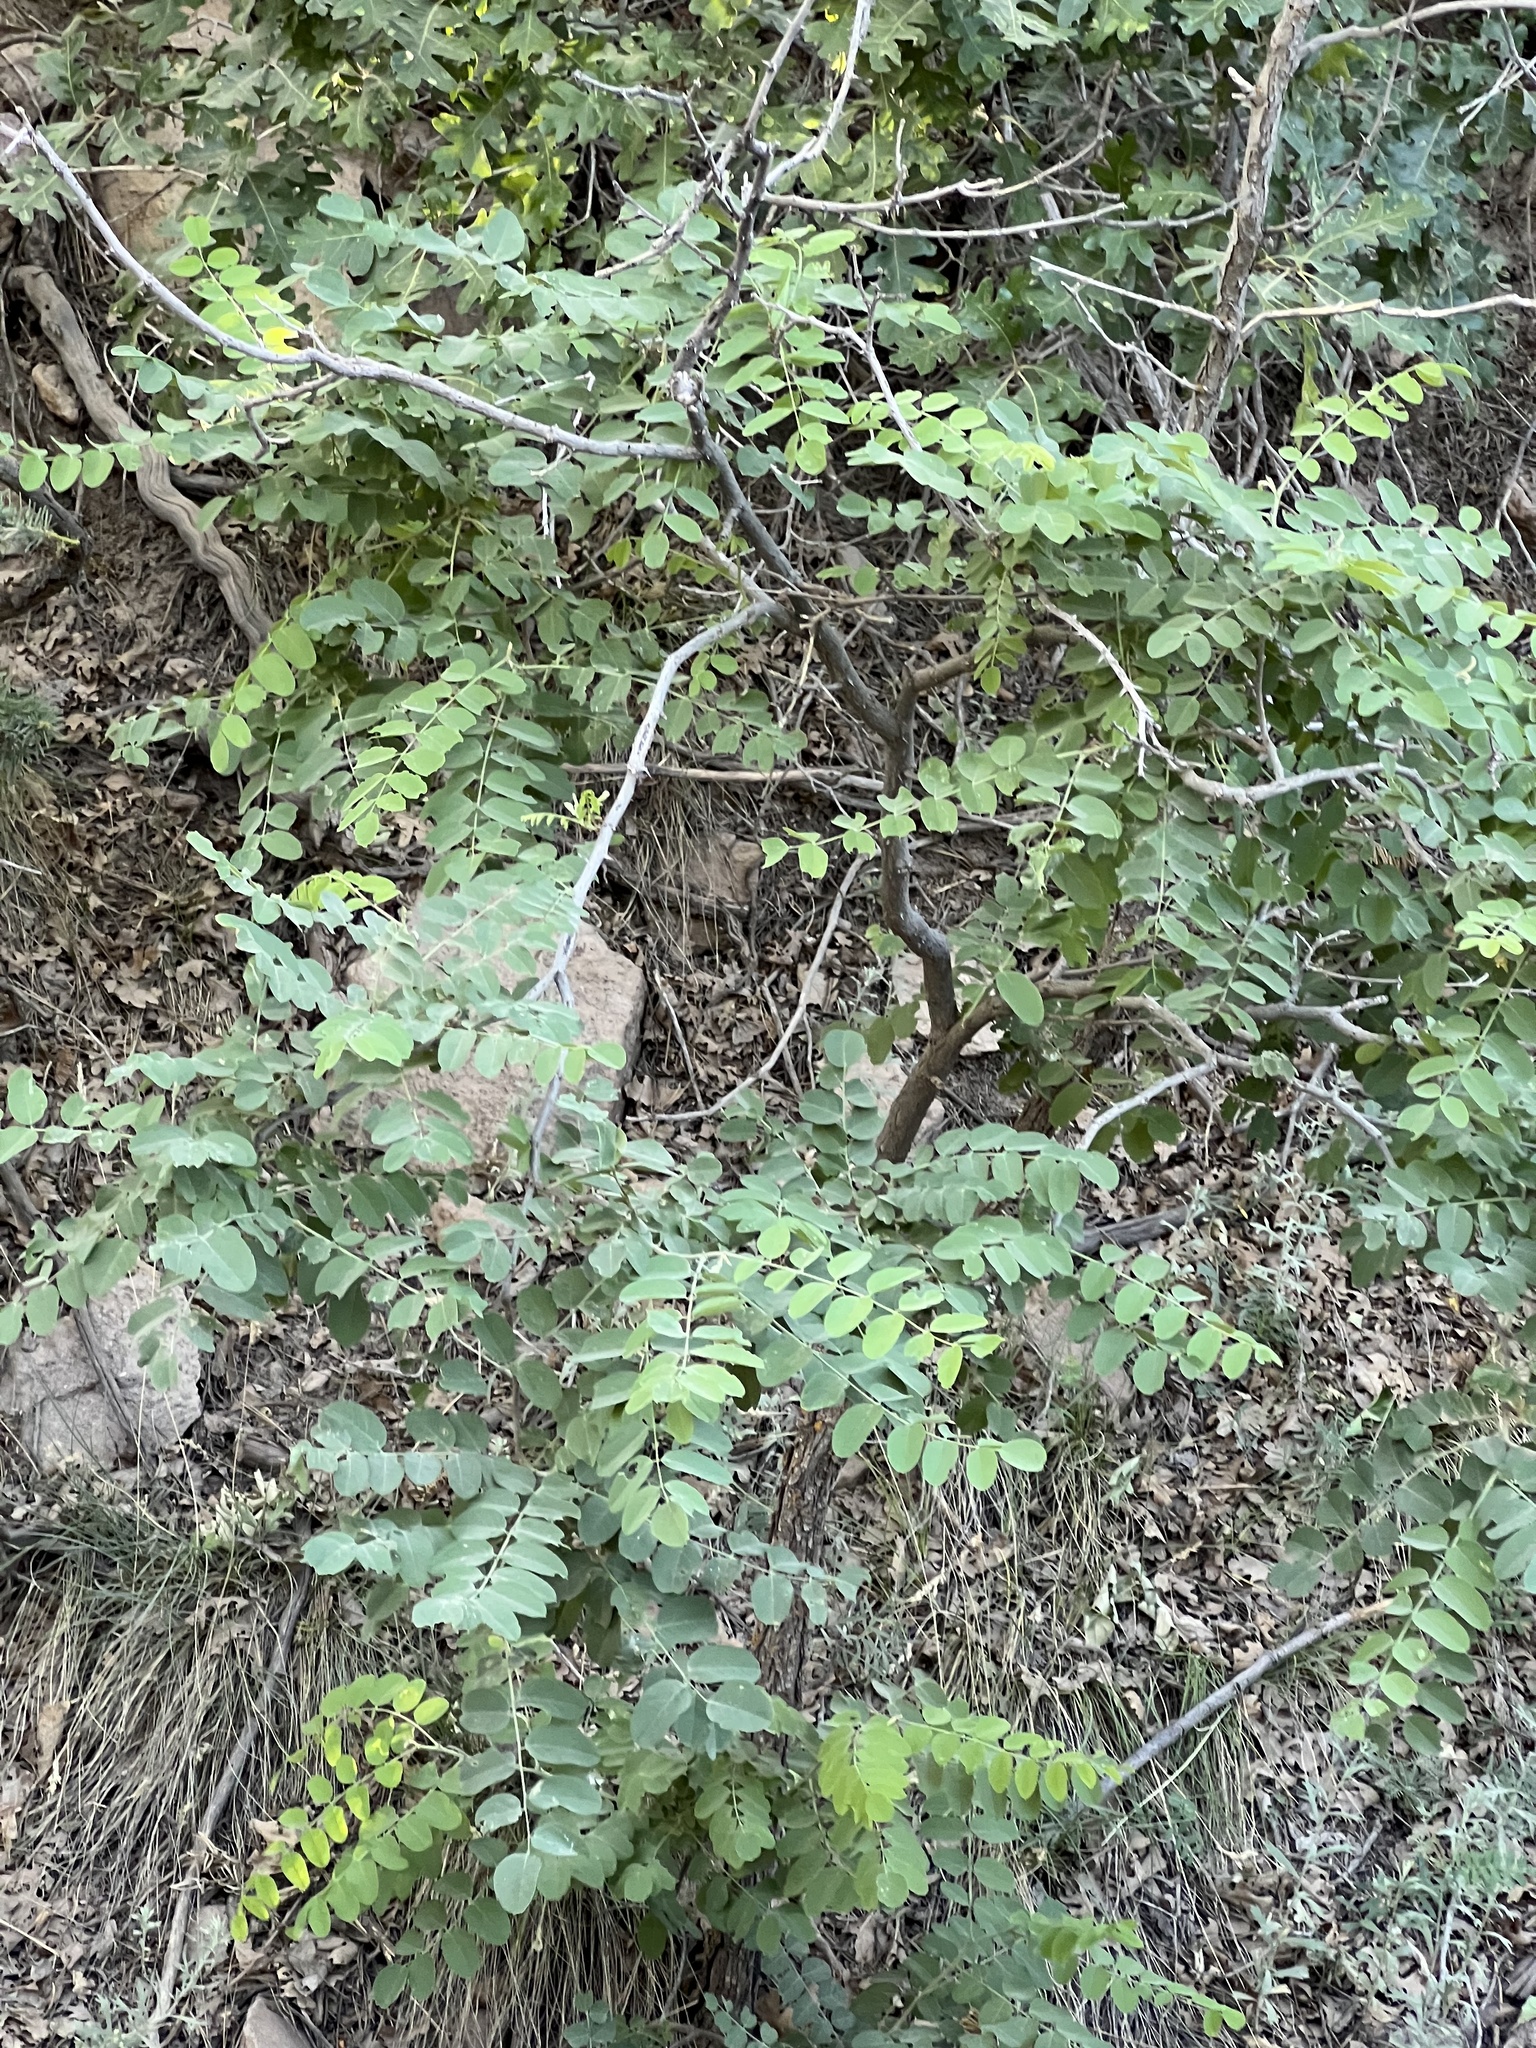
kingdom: Plantae
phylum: Tracheophyta
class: Magnoliopsida
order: Fabales
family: Fabaceae
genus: Robinia
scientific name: Robinia neomexicana
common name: New mexico locust
